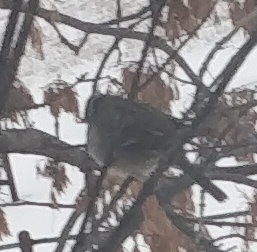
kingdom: Animalia
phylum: Chordata
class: Aves
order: Passeriformes
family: Passerellidae
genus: Zonotrichia
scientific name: Zonotrichia leucophrys
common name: White-crowned sparrow
